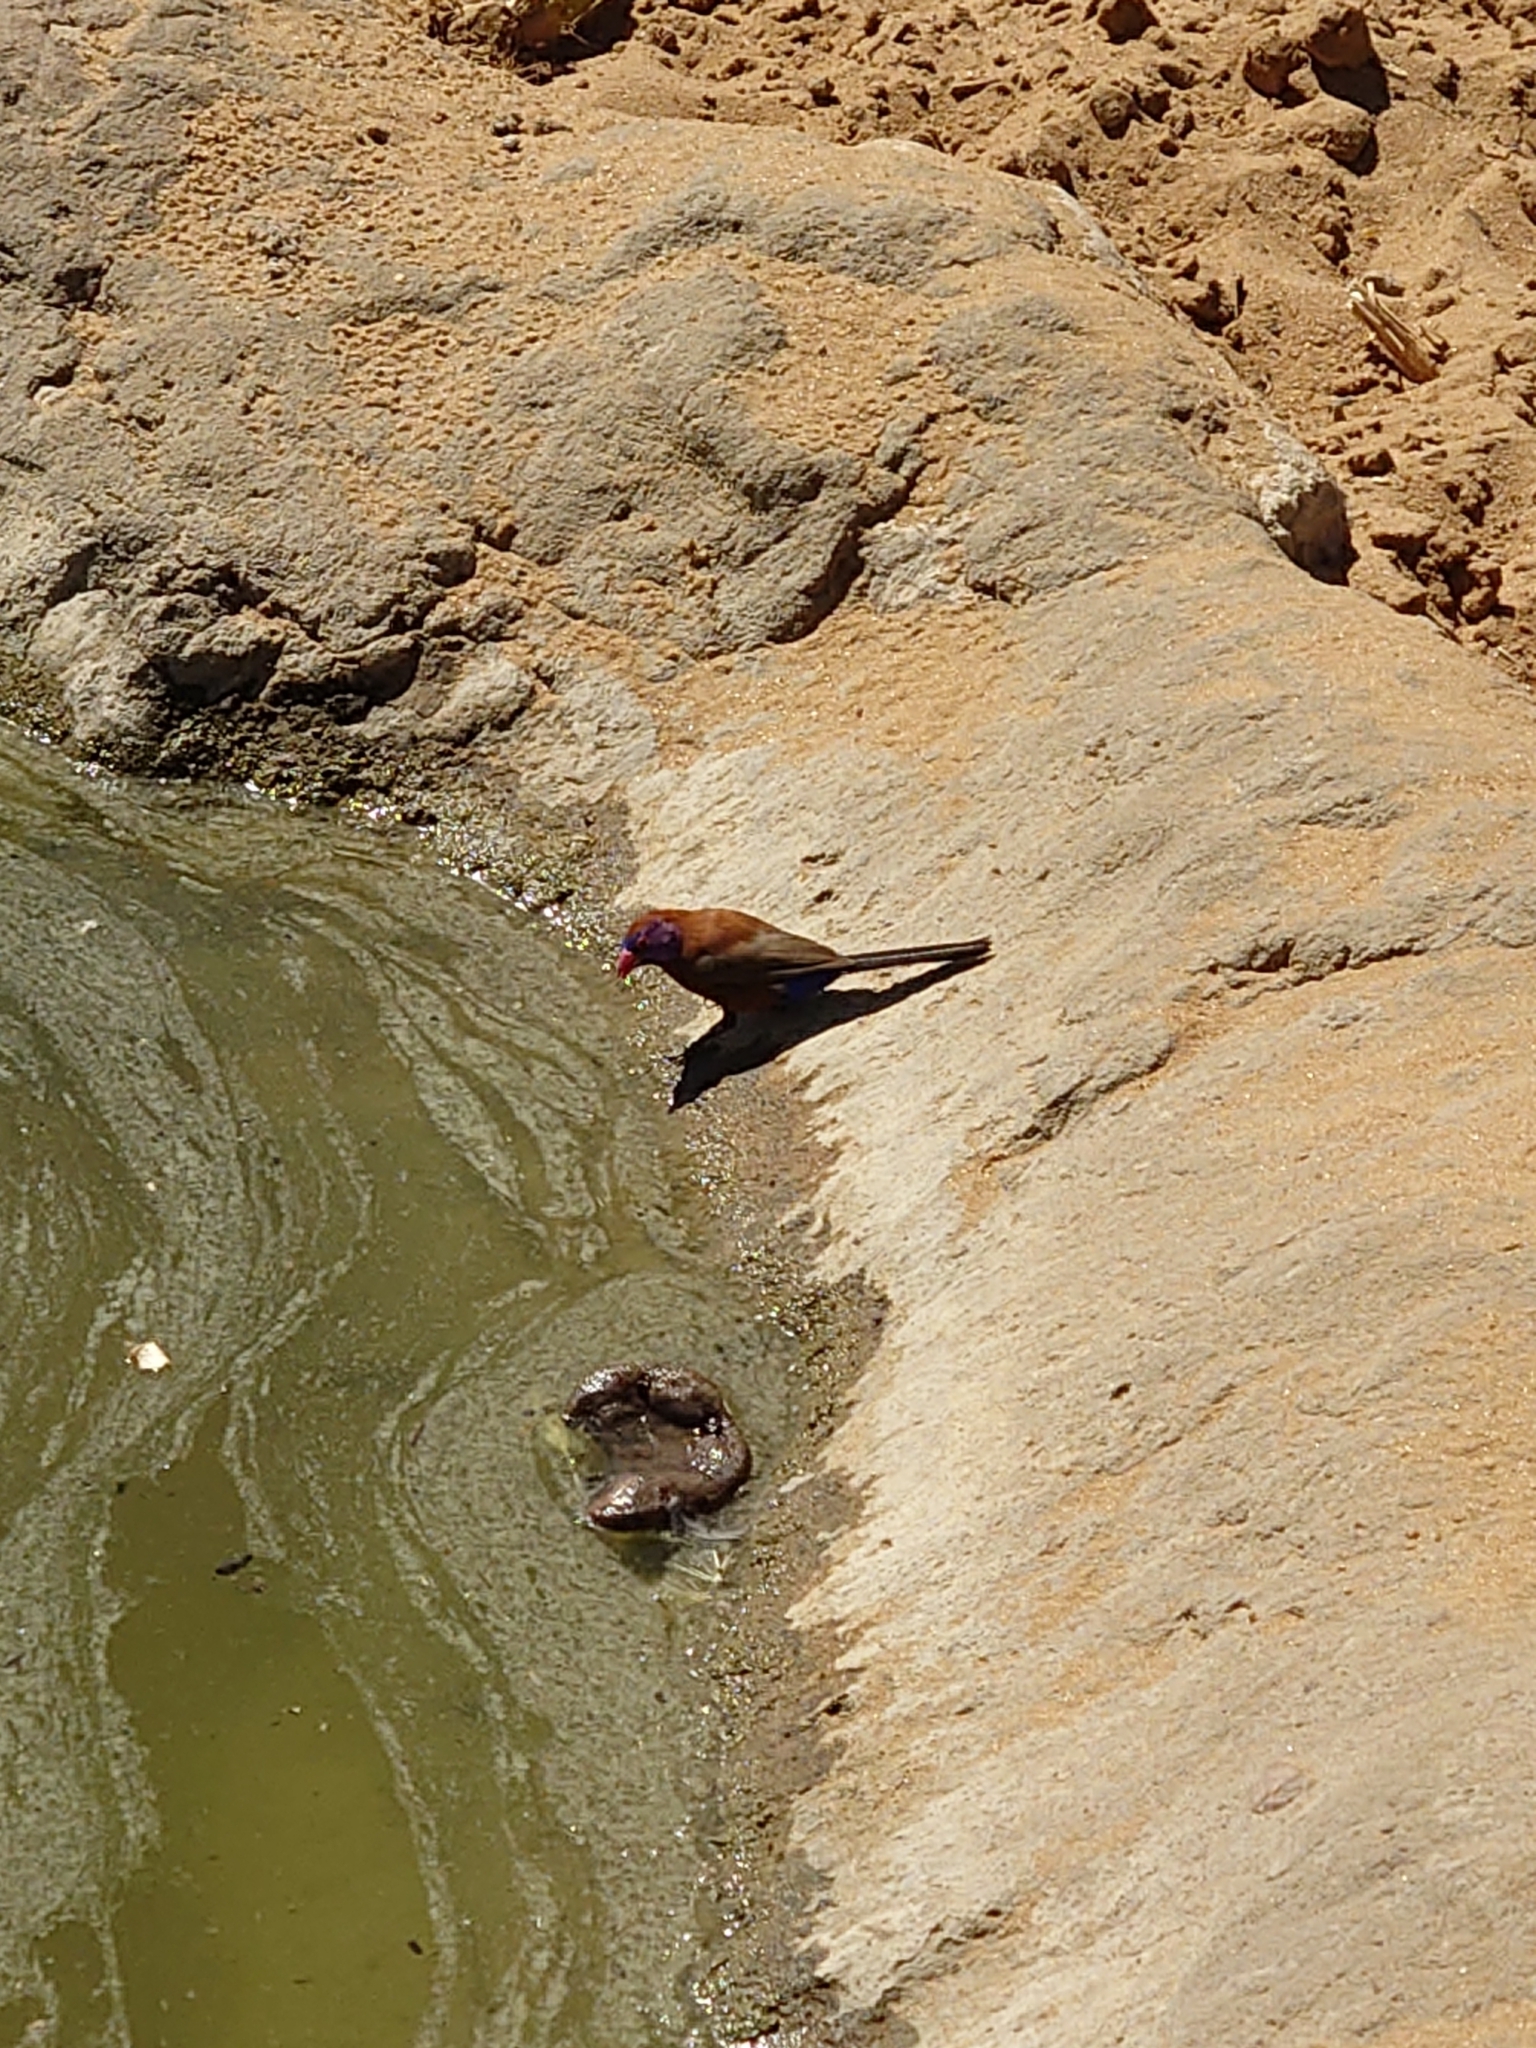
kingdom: Animalia
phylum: Chordata
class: Aves
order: Passeriformes
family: Estrildidae
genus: Uraeginthus
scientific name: Uraeginthus granatinus
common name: Violet-eared waxbill
